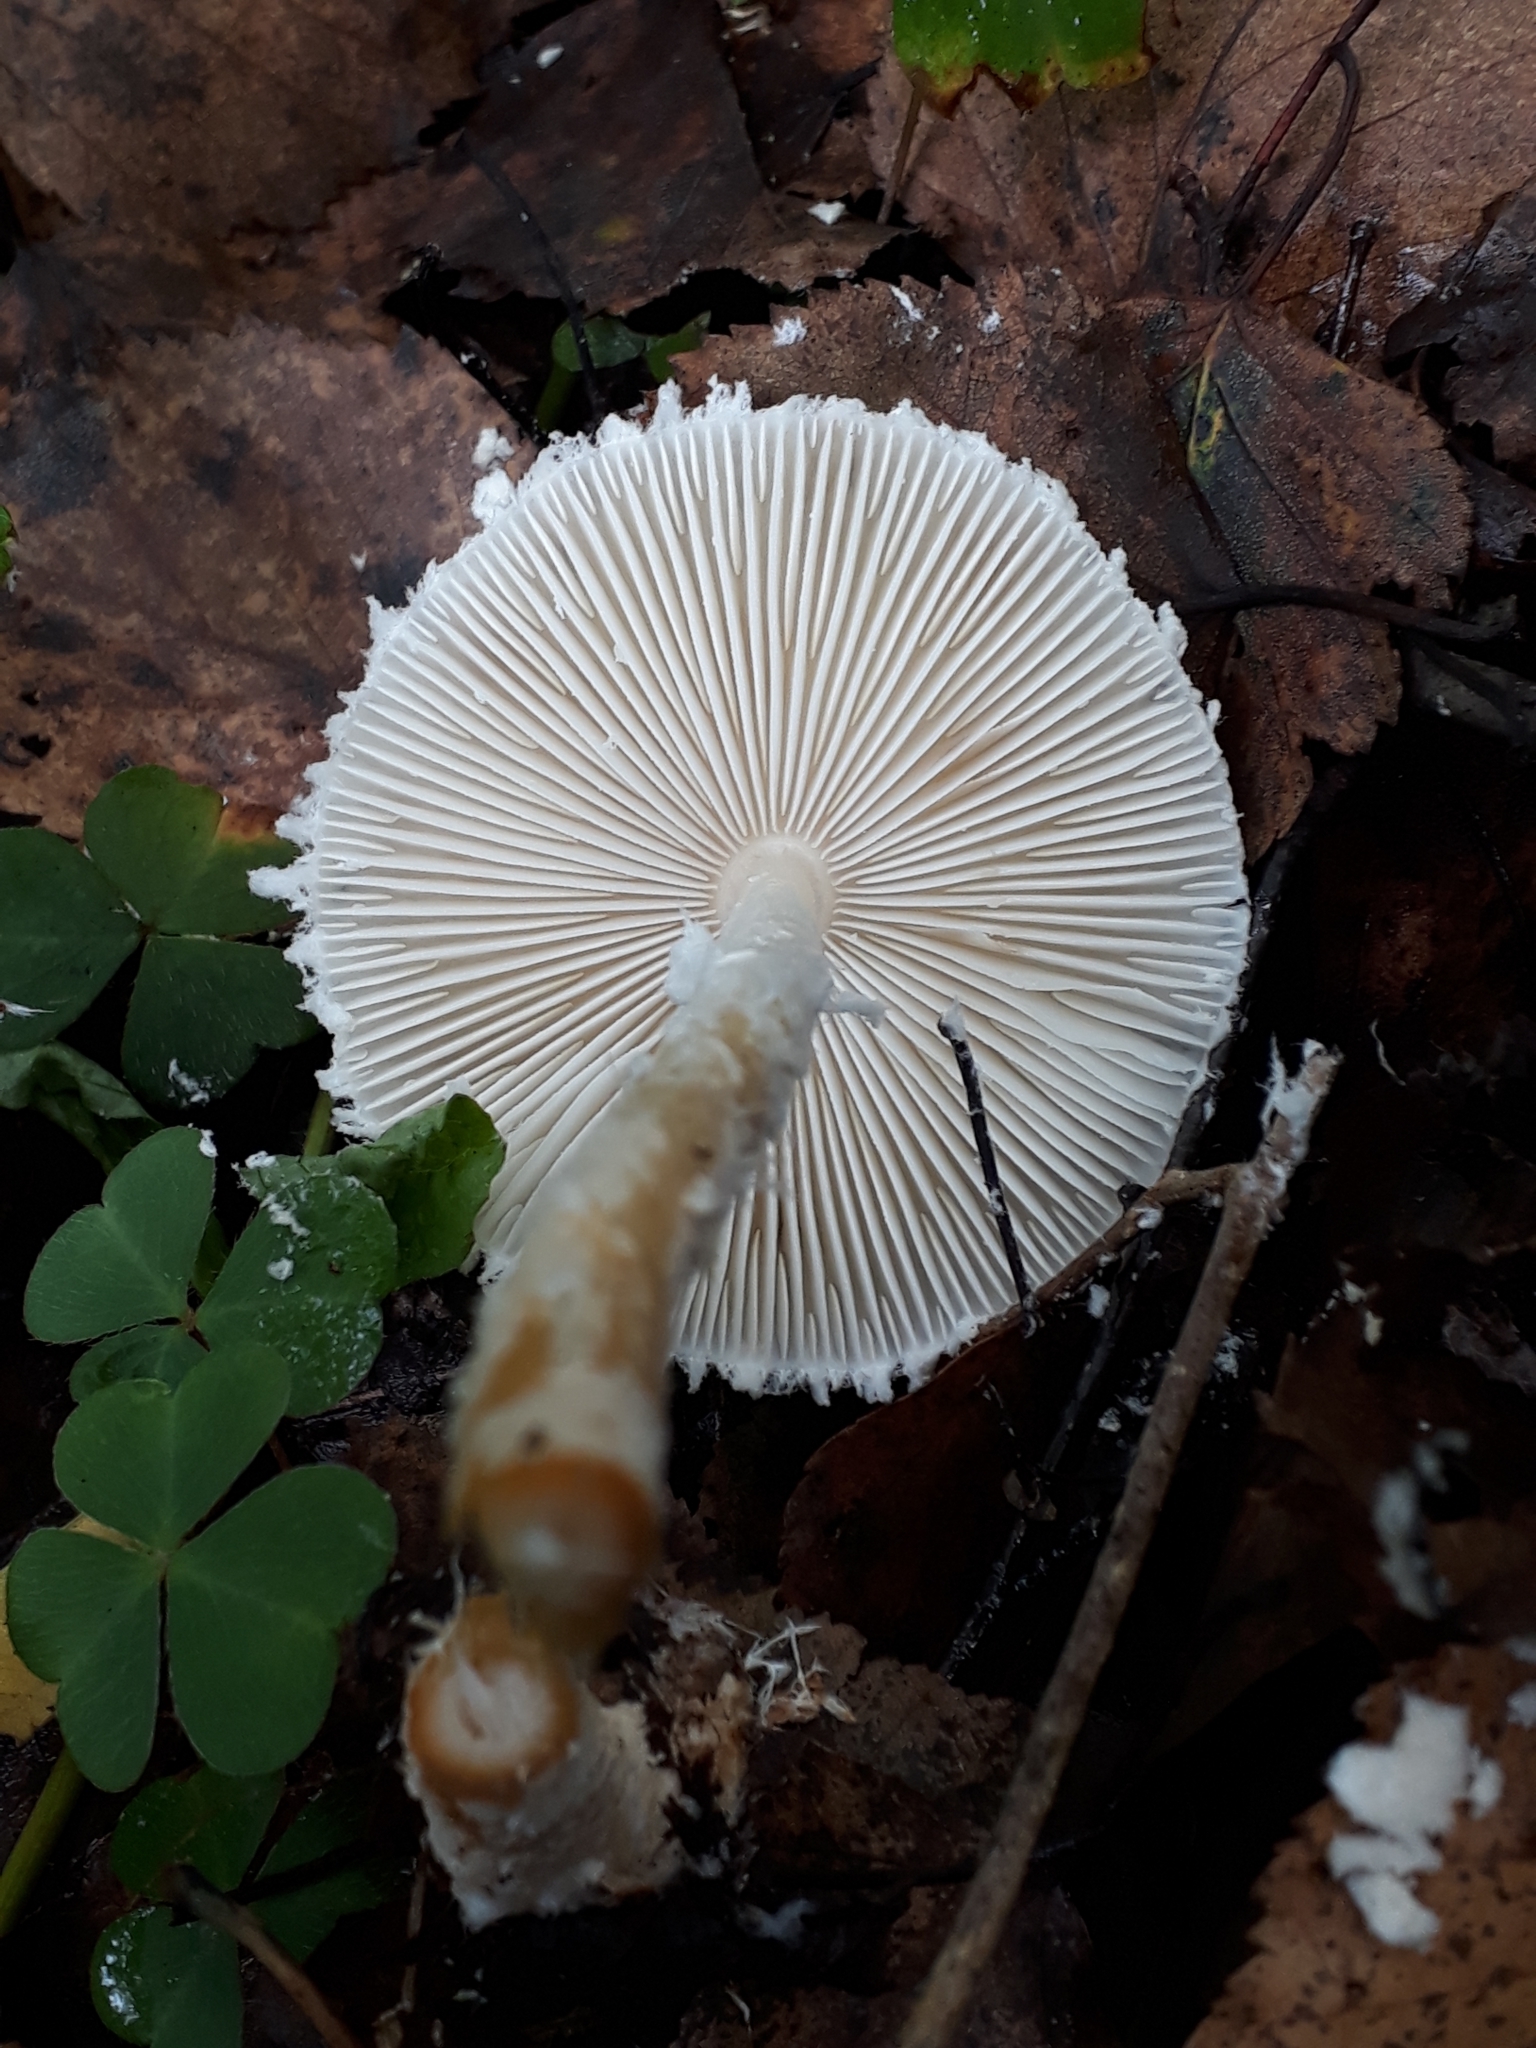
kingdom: Fungi
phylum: Basidiomycota
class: Agaricomycetes
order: Agaricales
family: Agaricaceae
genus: Lepiota
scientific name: Lepiota clypeolaria
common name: Shield dapperling
